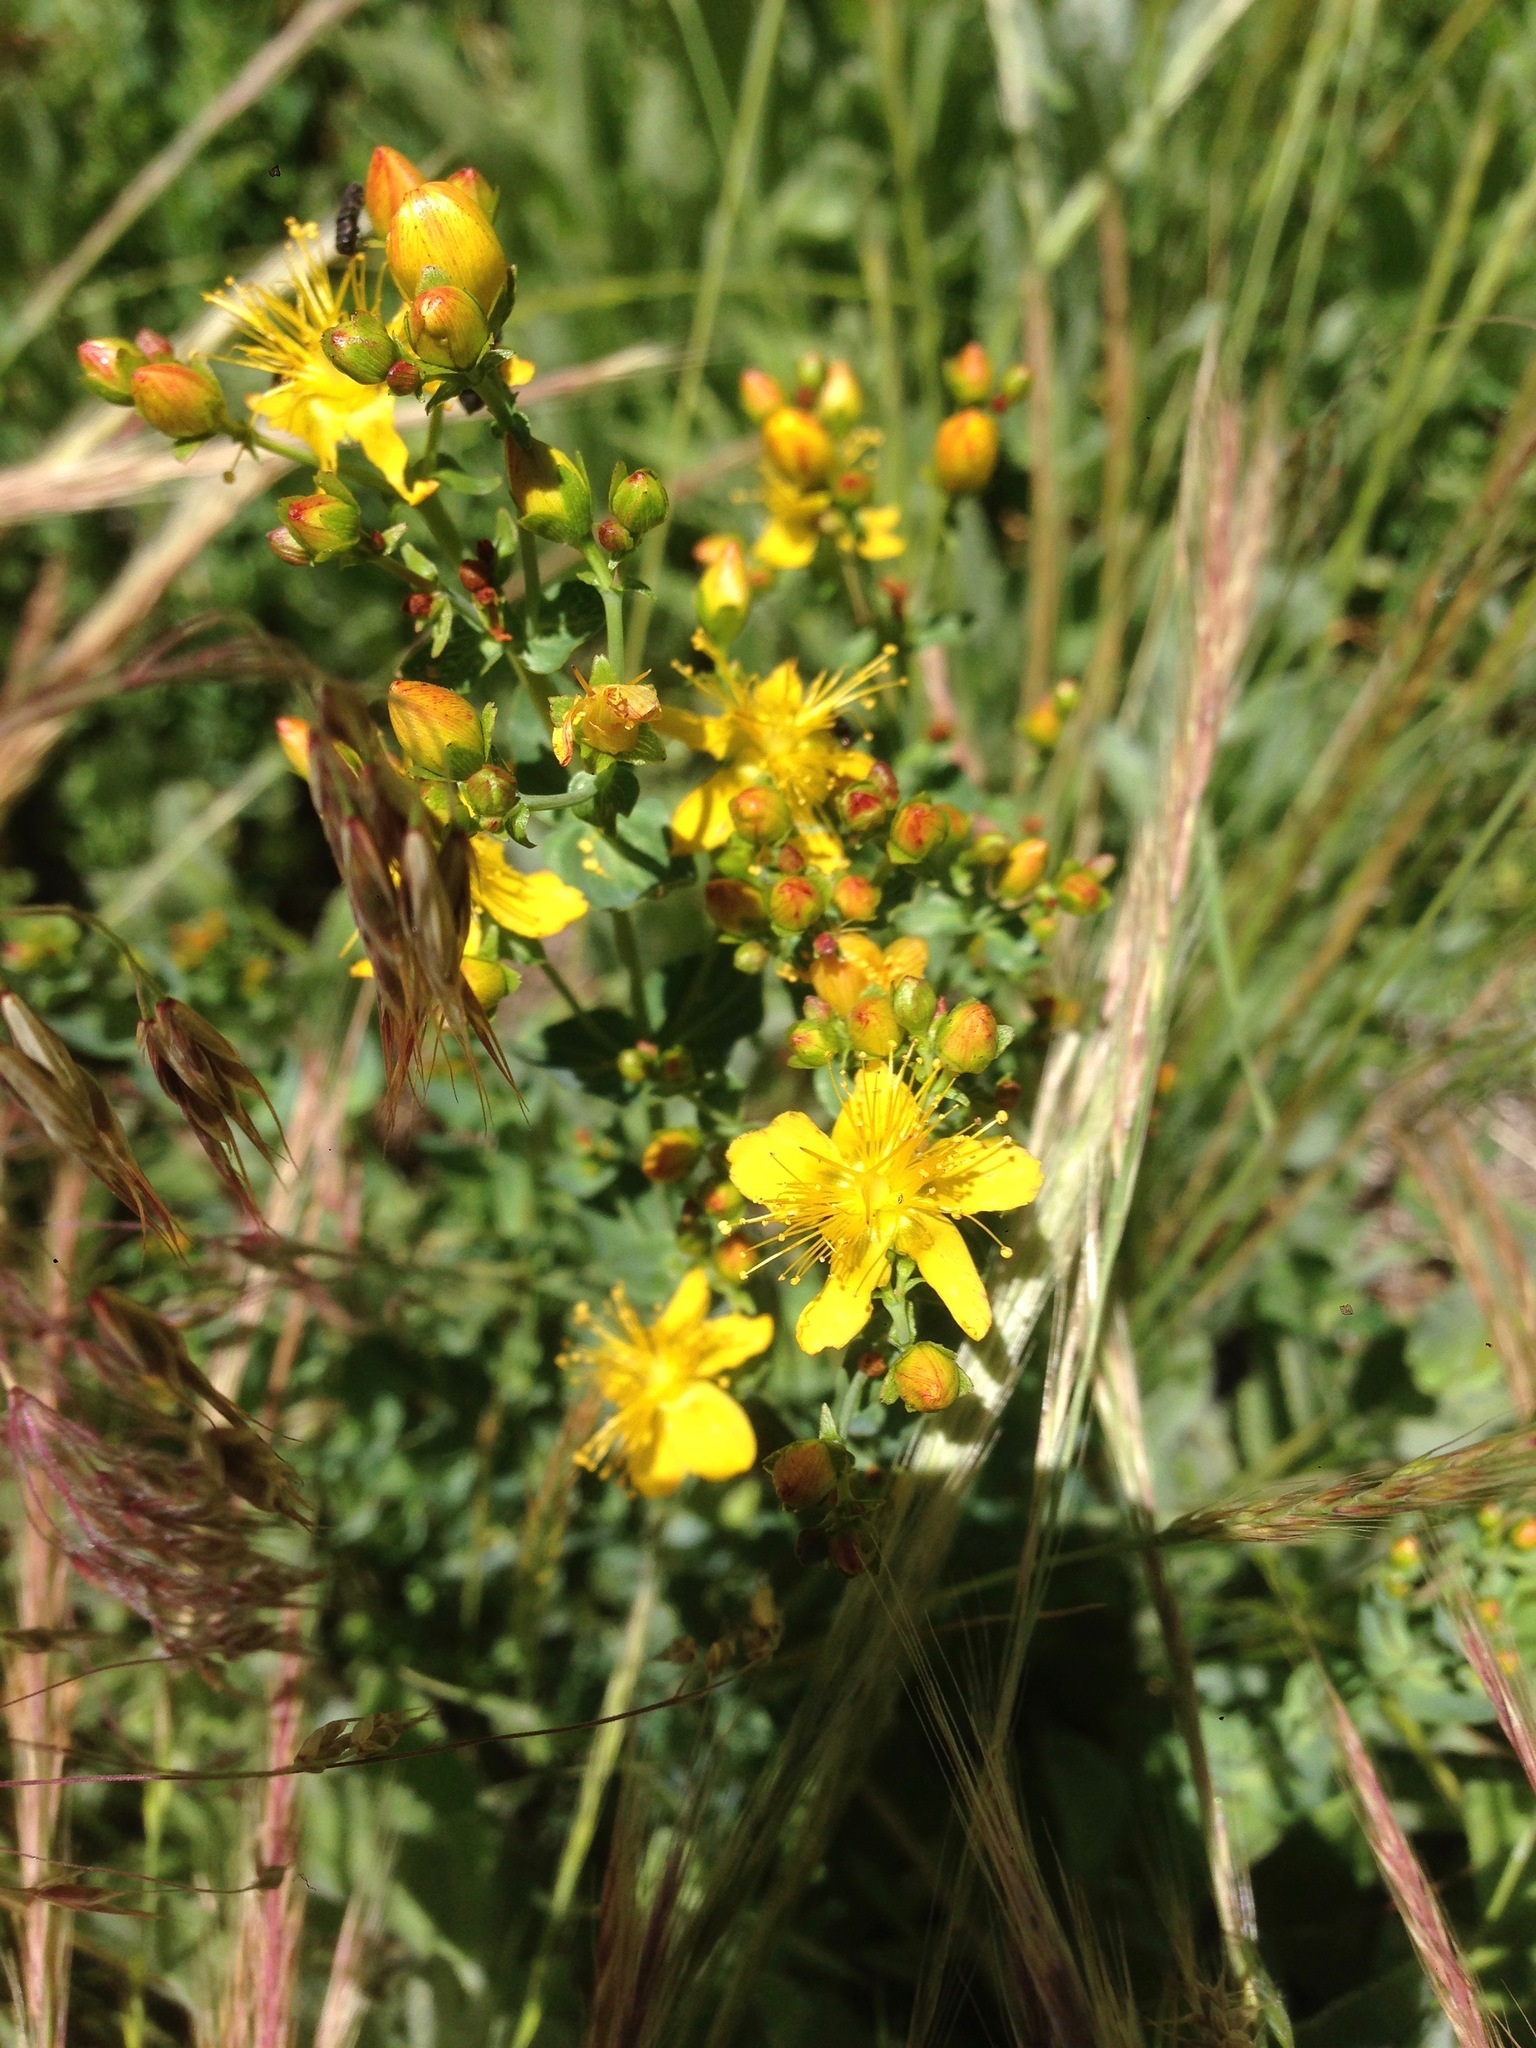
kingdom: Plantae
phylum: Tracheophyta
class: Magnoliopsida
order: Malpighiales
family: Hypericaceae
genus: Hypericum
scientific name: Hypericum scouleri
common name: Scouler's st. john's-wort
